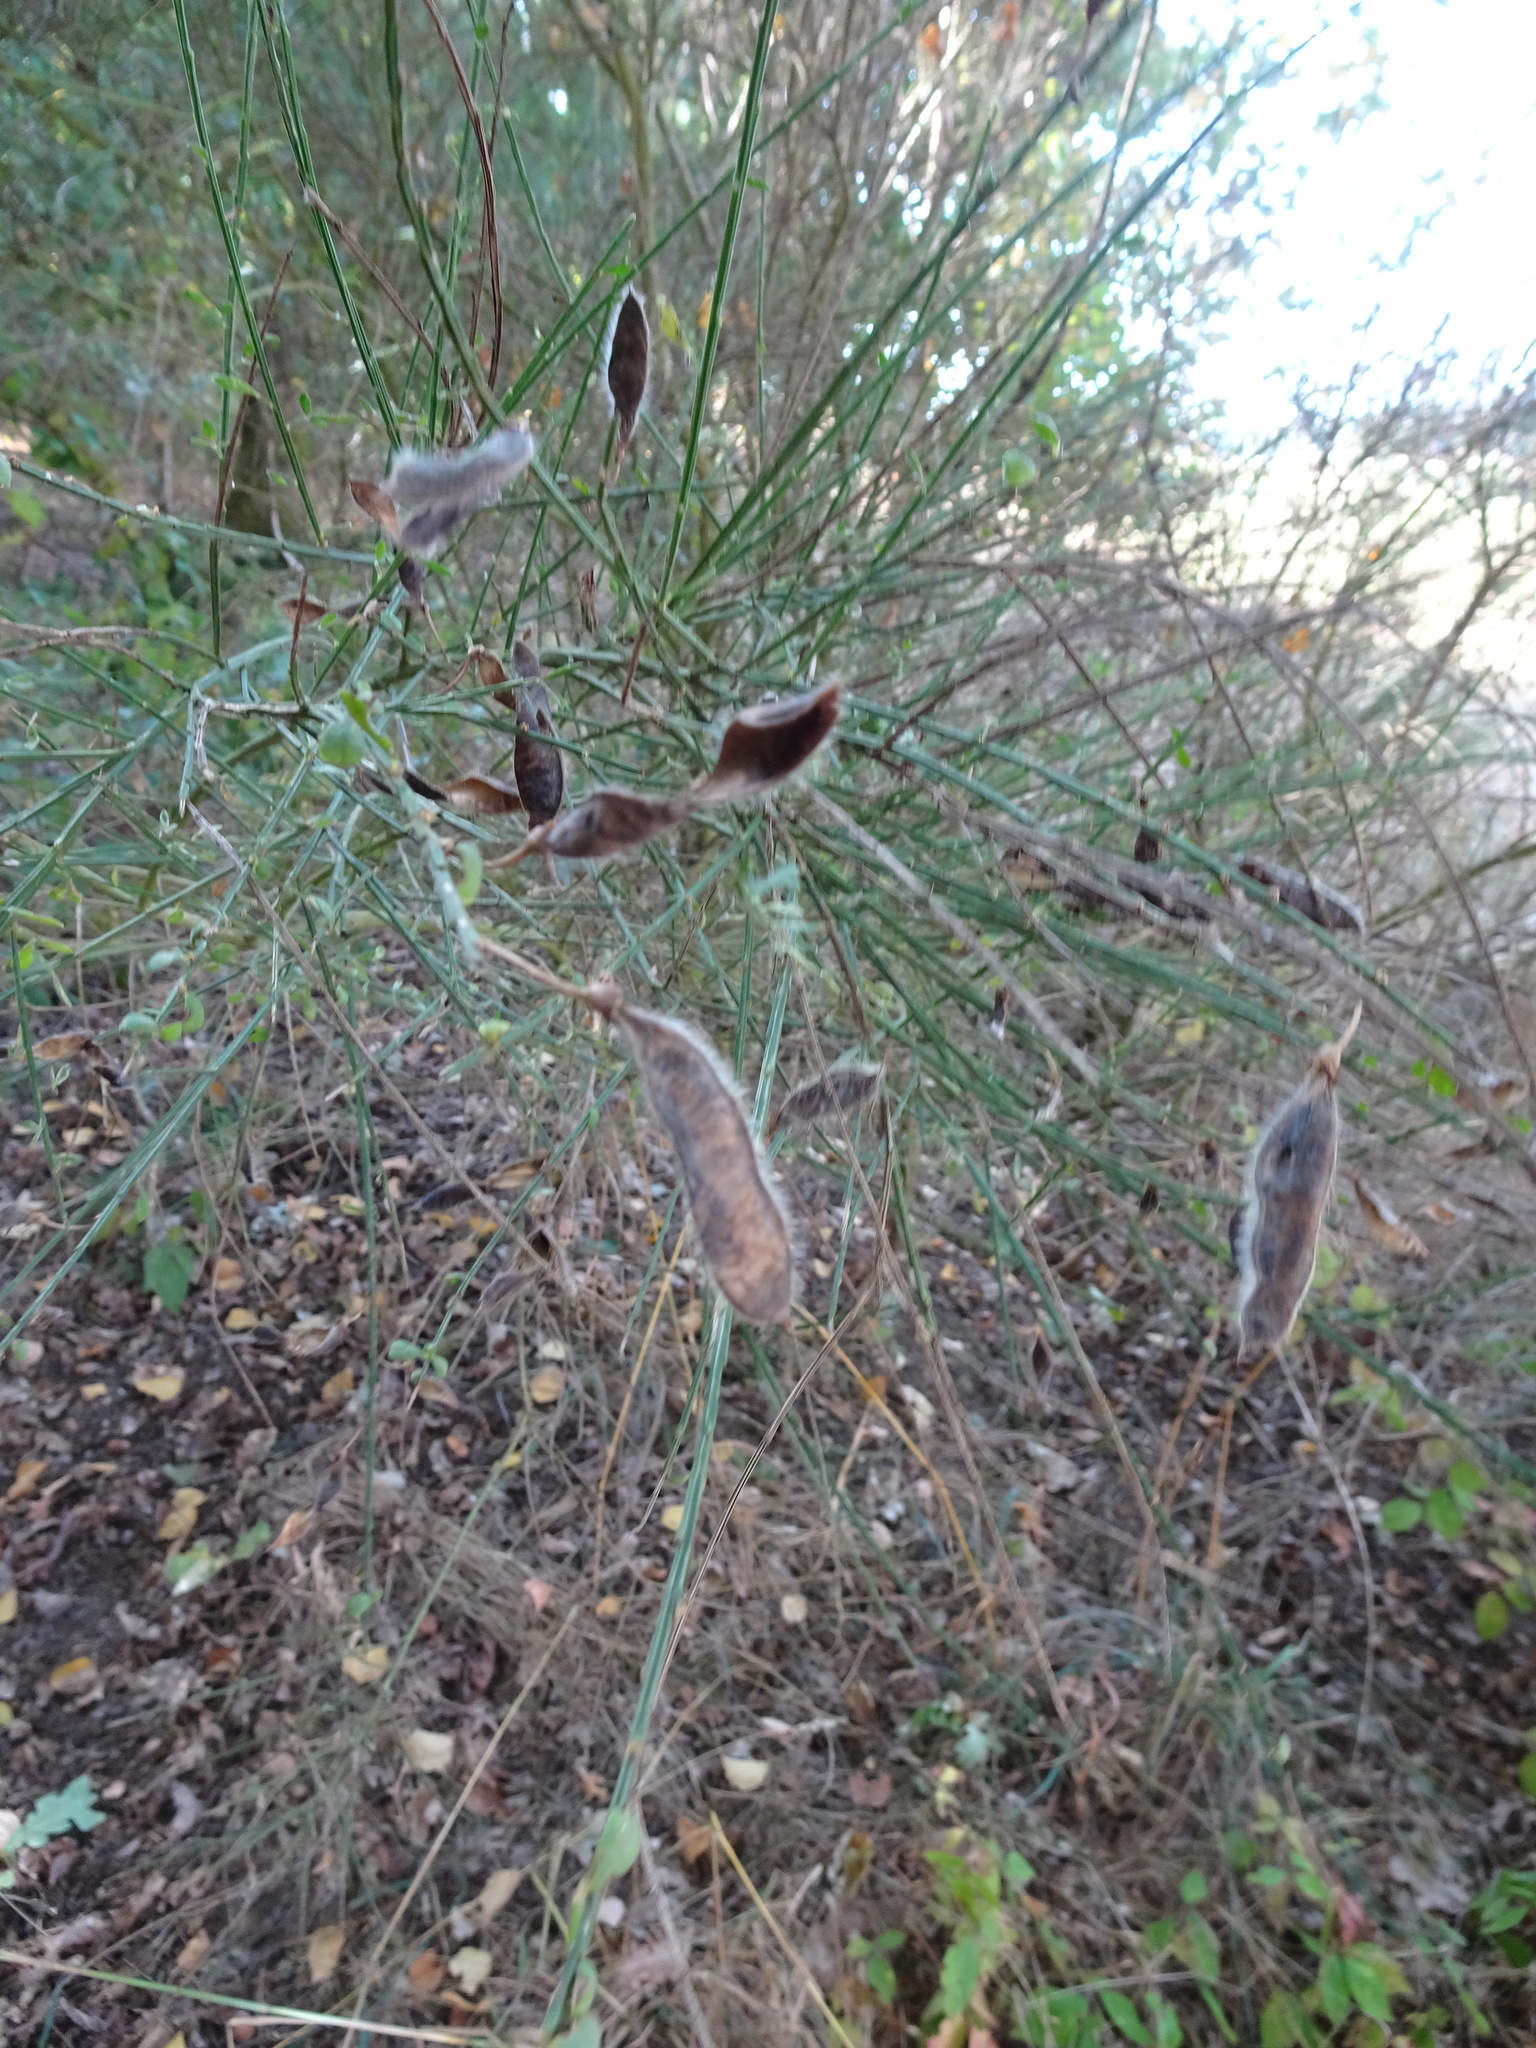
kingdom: Plantae
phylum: Tracheophyta
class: Magnoliopsida
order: Fabales
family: Fabaceae
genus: Cytisus
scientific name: Cytisus scoparius
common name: Scotch broom
